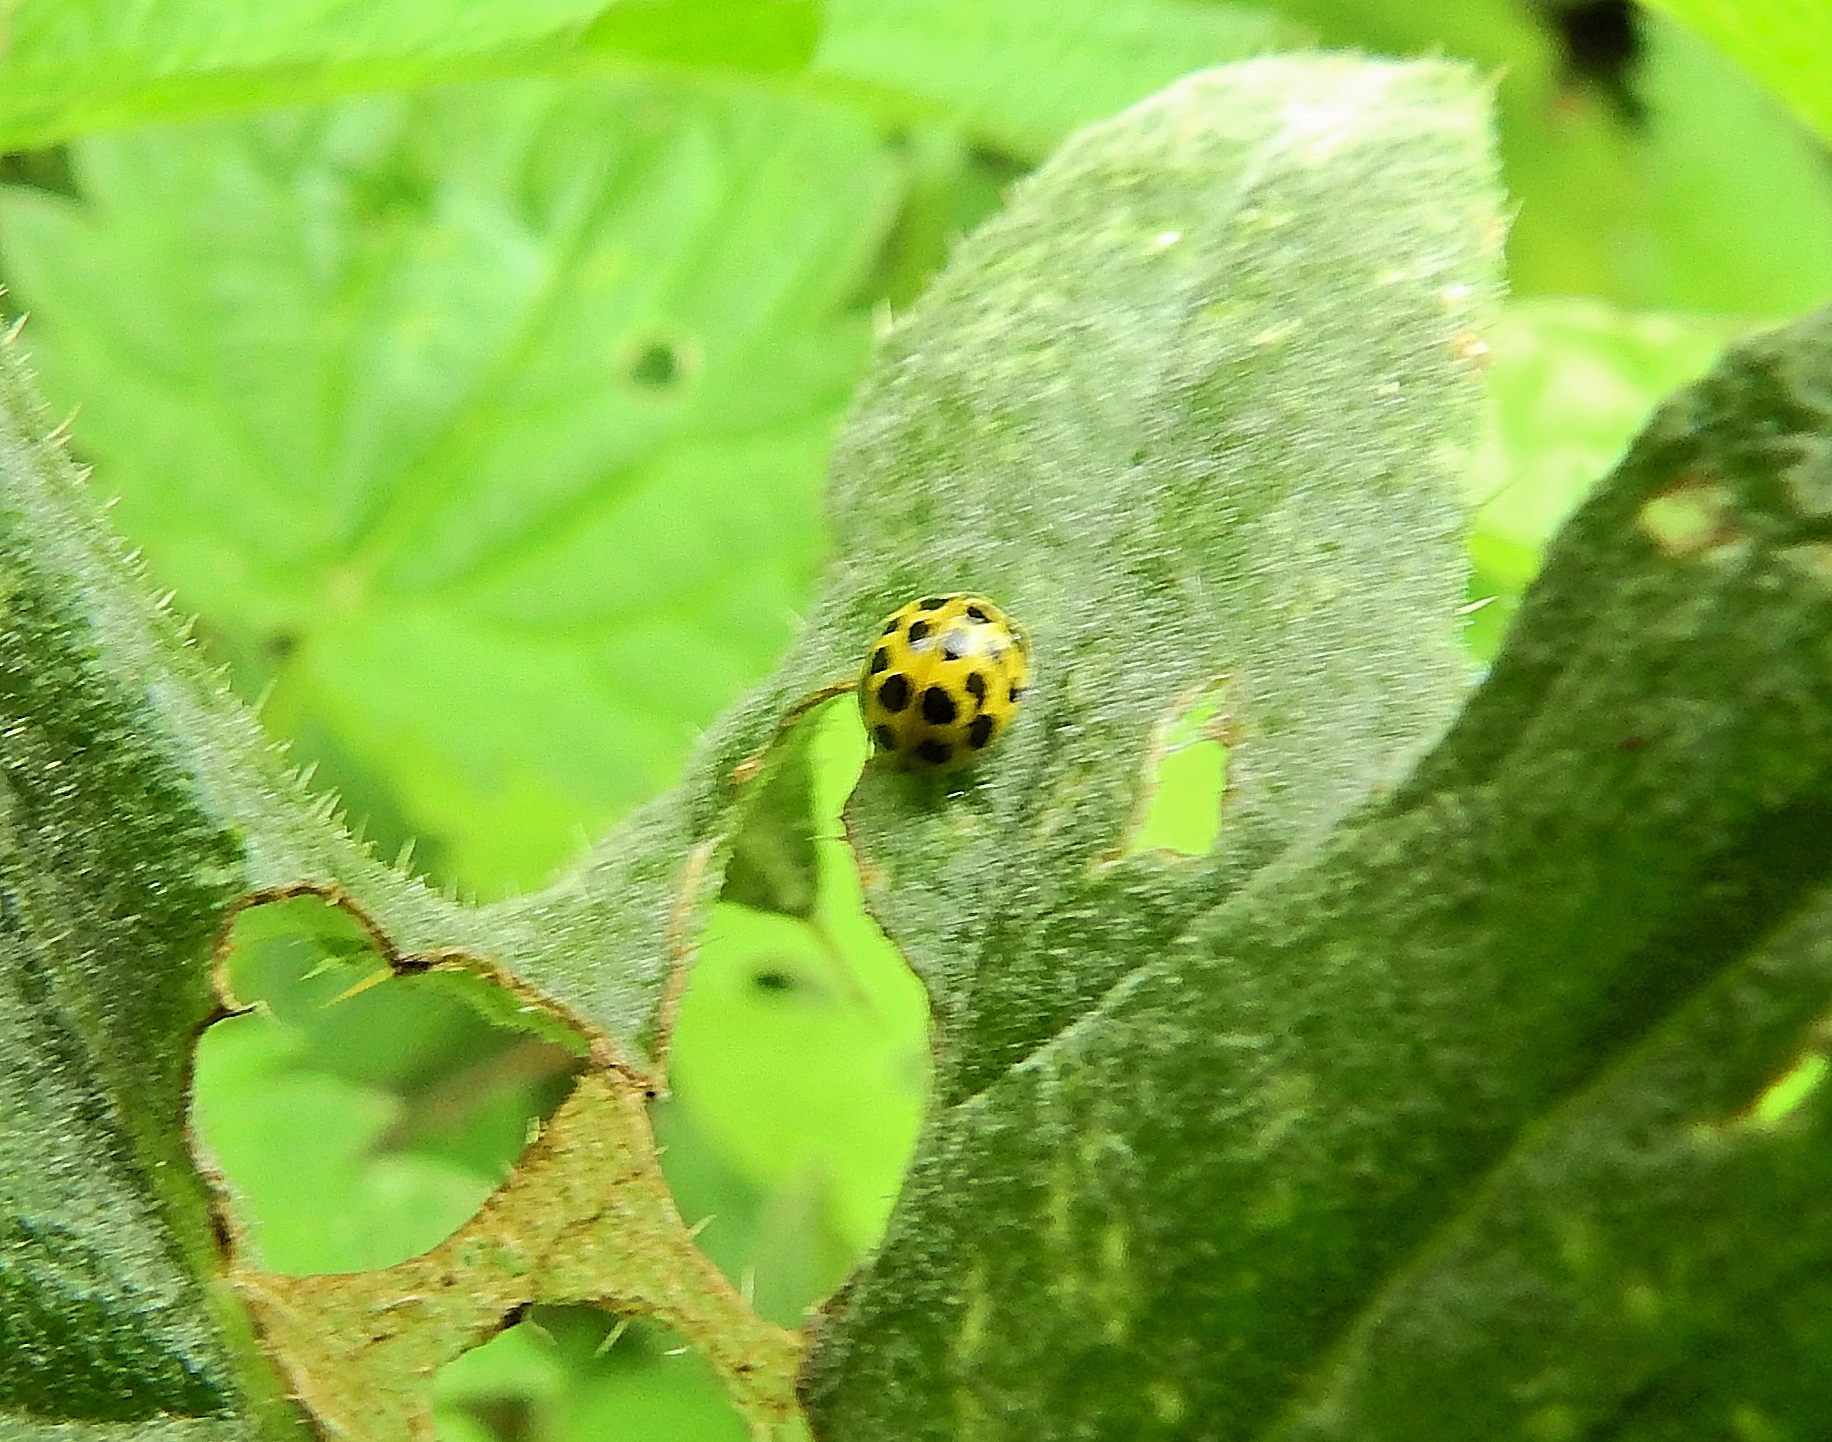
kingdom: Animalia
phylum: Arthropoda
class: Insecta
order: Coleoptera
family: Coccinellidae
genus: Psyllobora
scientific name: Psyllobora vigintiduopunctata
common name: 22-spot ladybird
